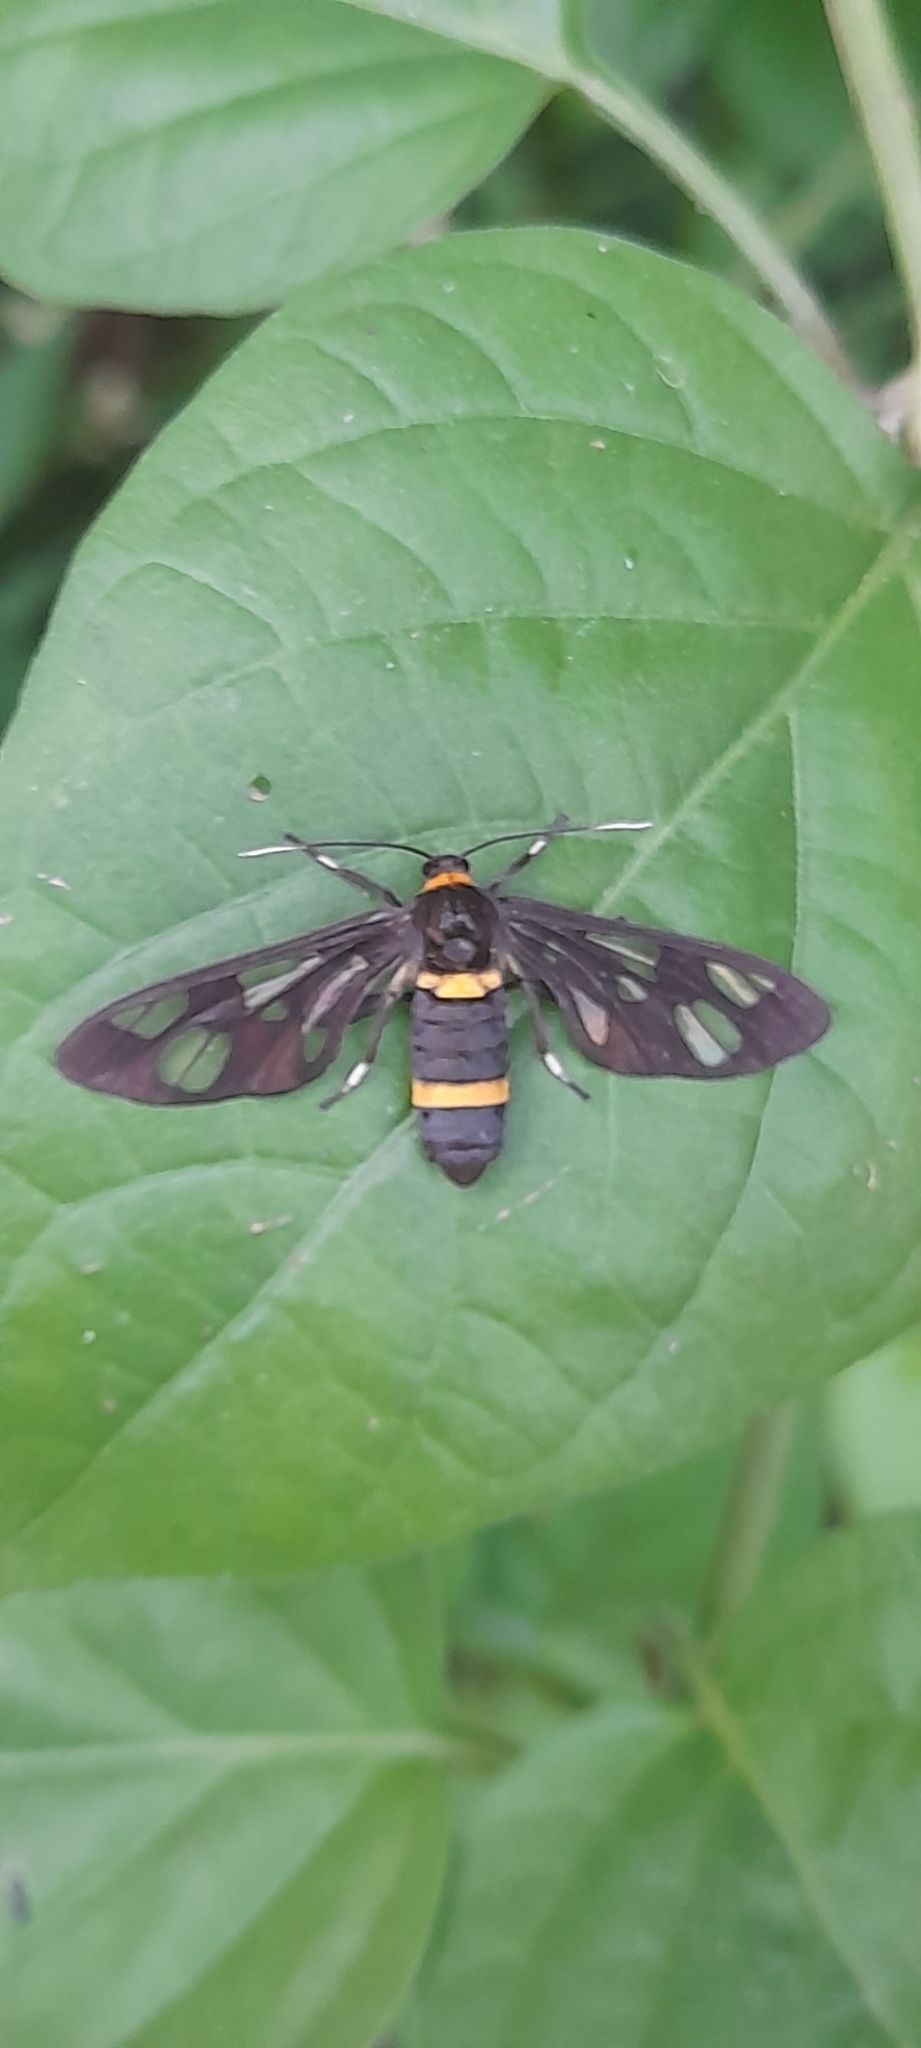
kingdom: Animalia
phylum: Arthropoda
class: Insecta
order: Lepidoptera
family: Erebidae
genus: Syntomoides
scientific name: Syntomoides imaon
